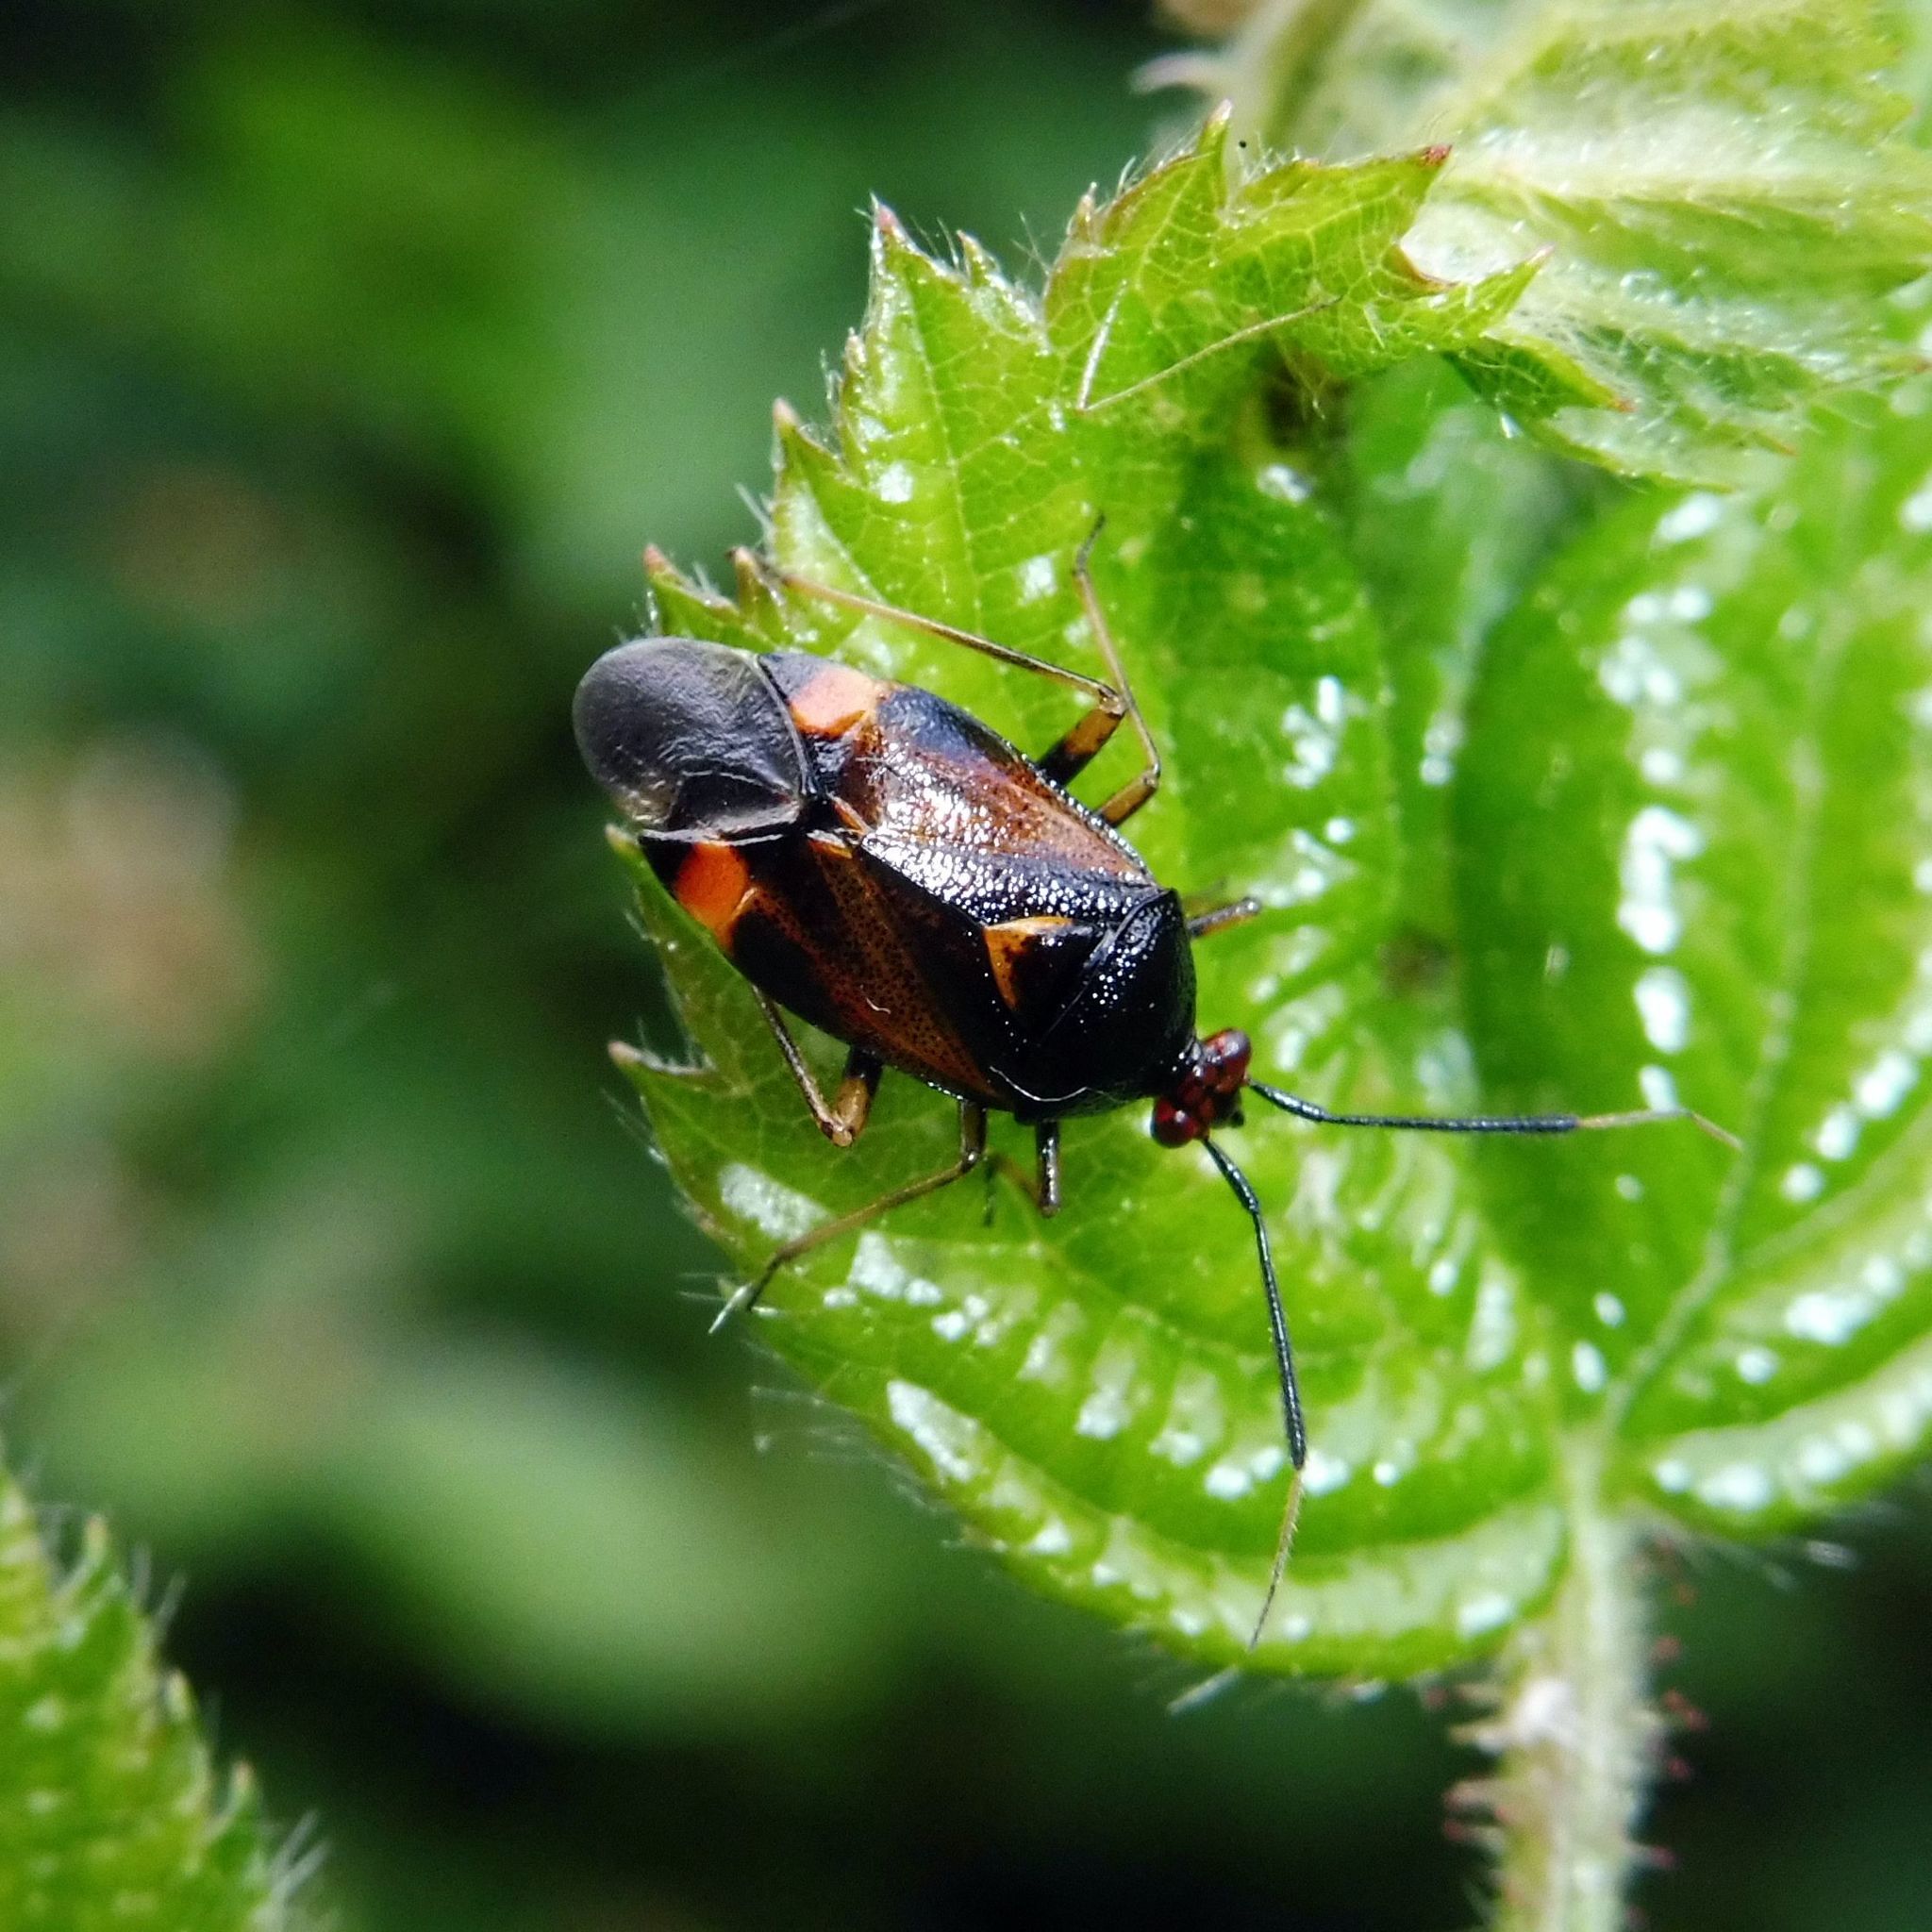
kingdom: Animalia
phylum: Arthropoda
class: Insecta
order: Hemiptera
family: Miridae
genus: Deraeocoris
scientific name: Deraeocoris ruber
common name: Plant bug
